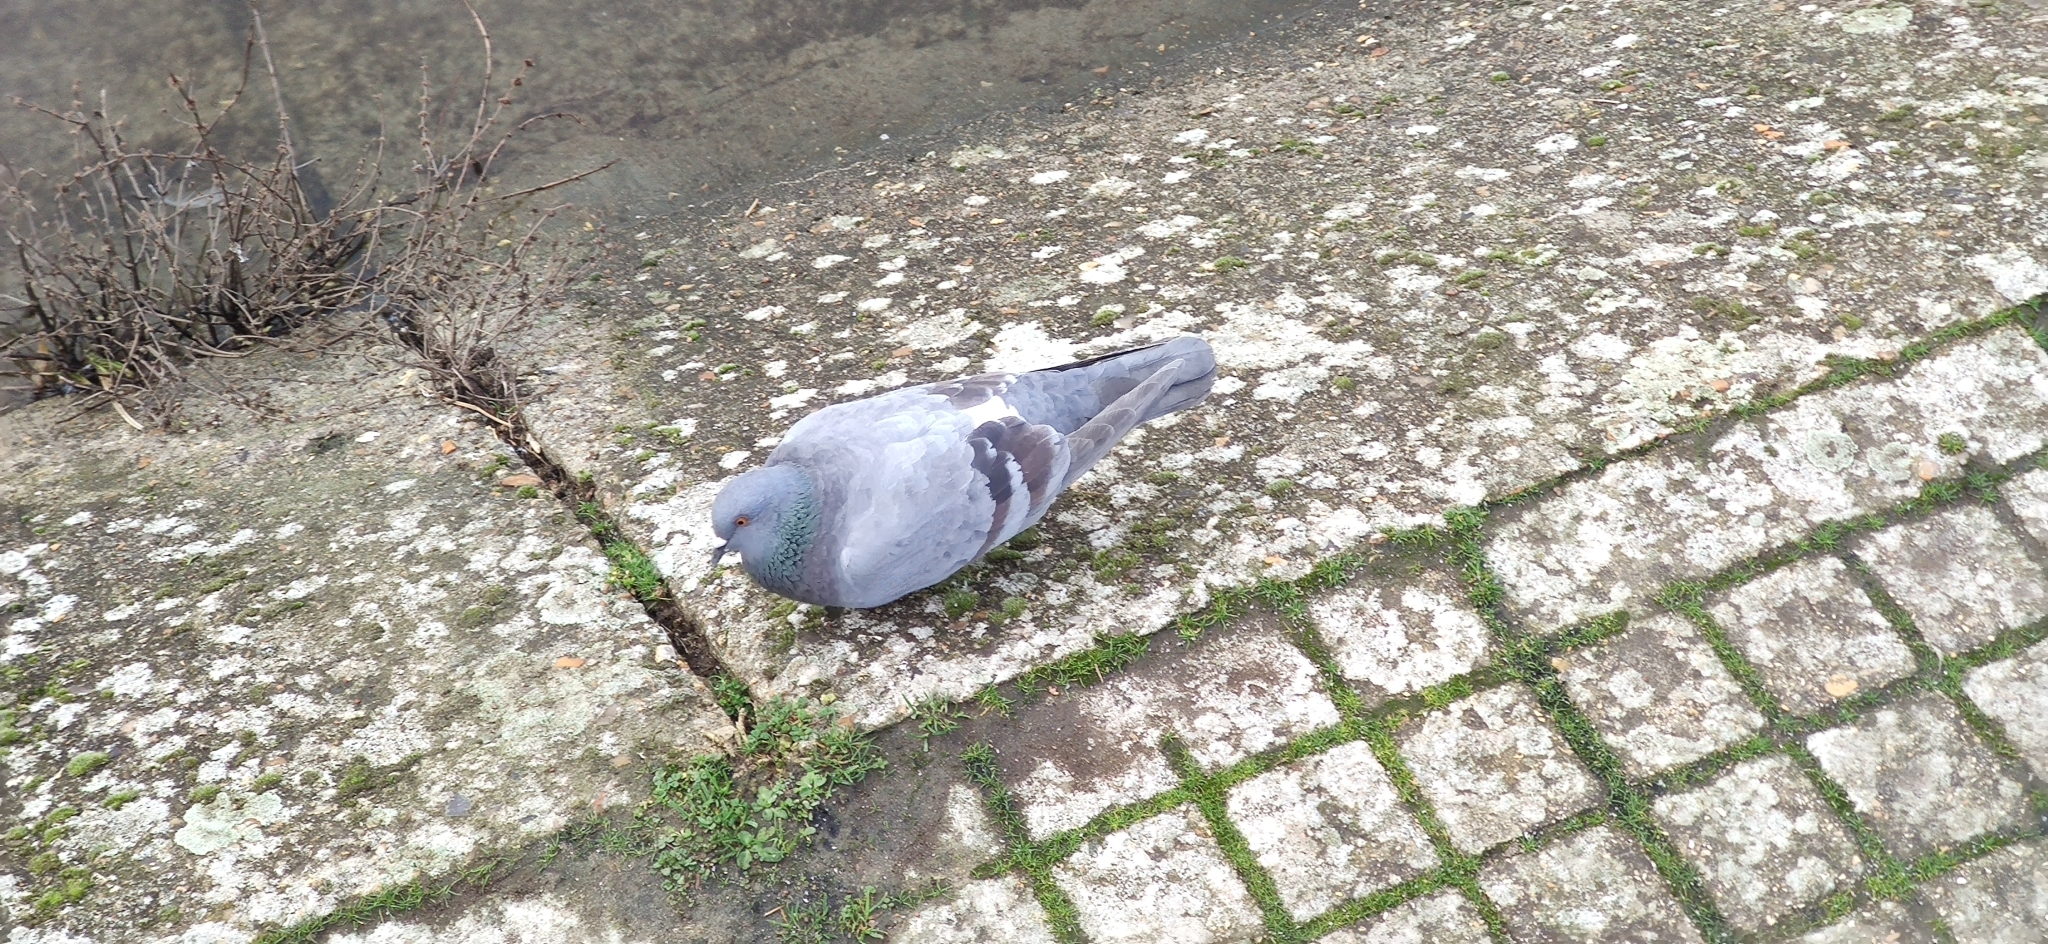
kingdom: Animalia
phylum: Chordata
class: Aves
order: Columbiformes
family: Columbidae
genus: Columba
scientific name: Columba livia
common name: Rock pigeon
